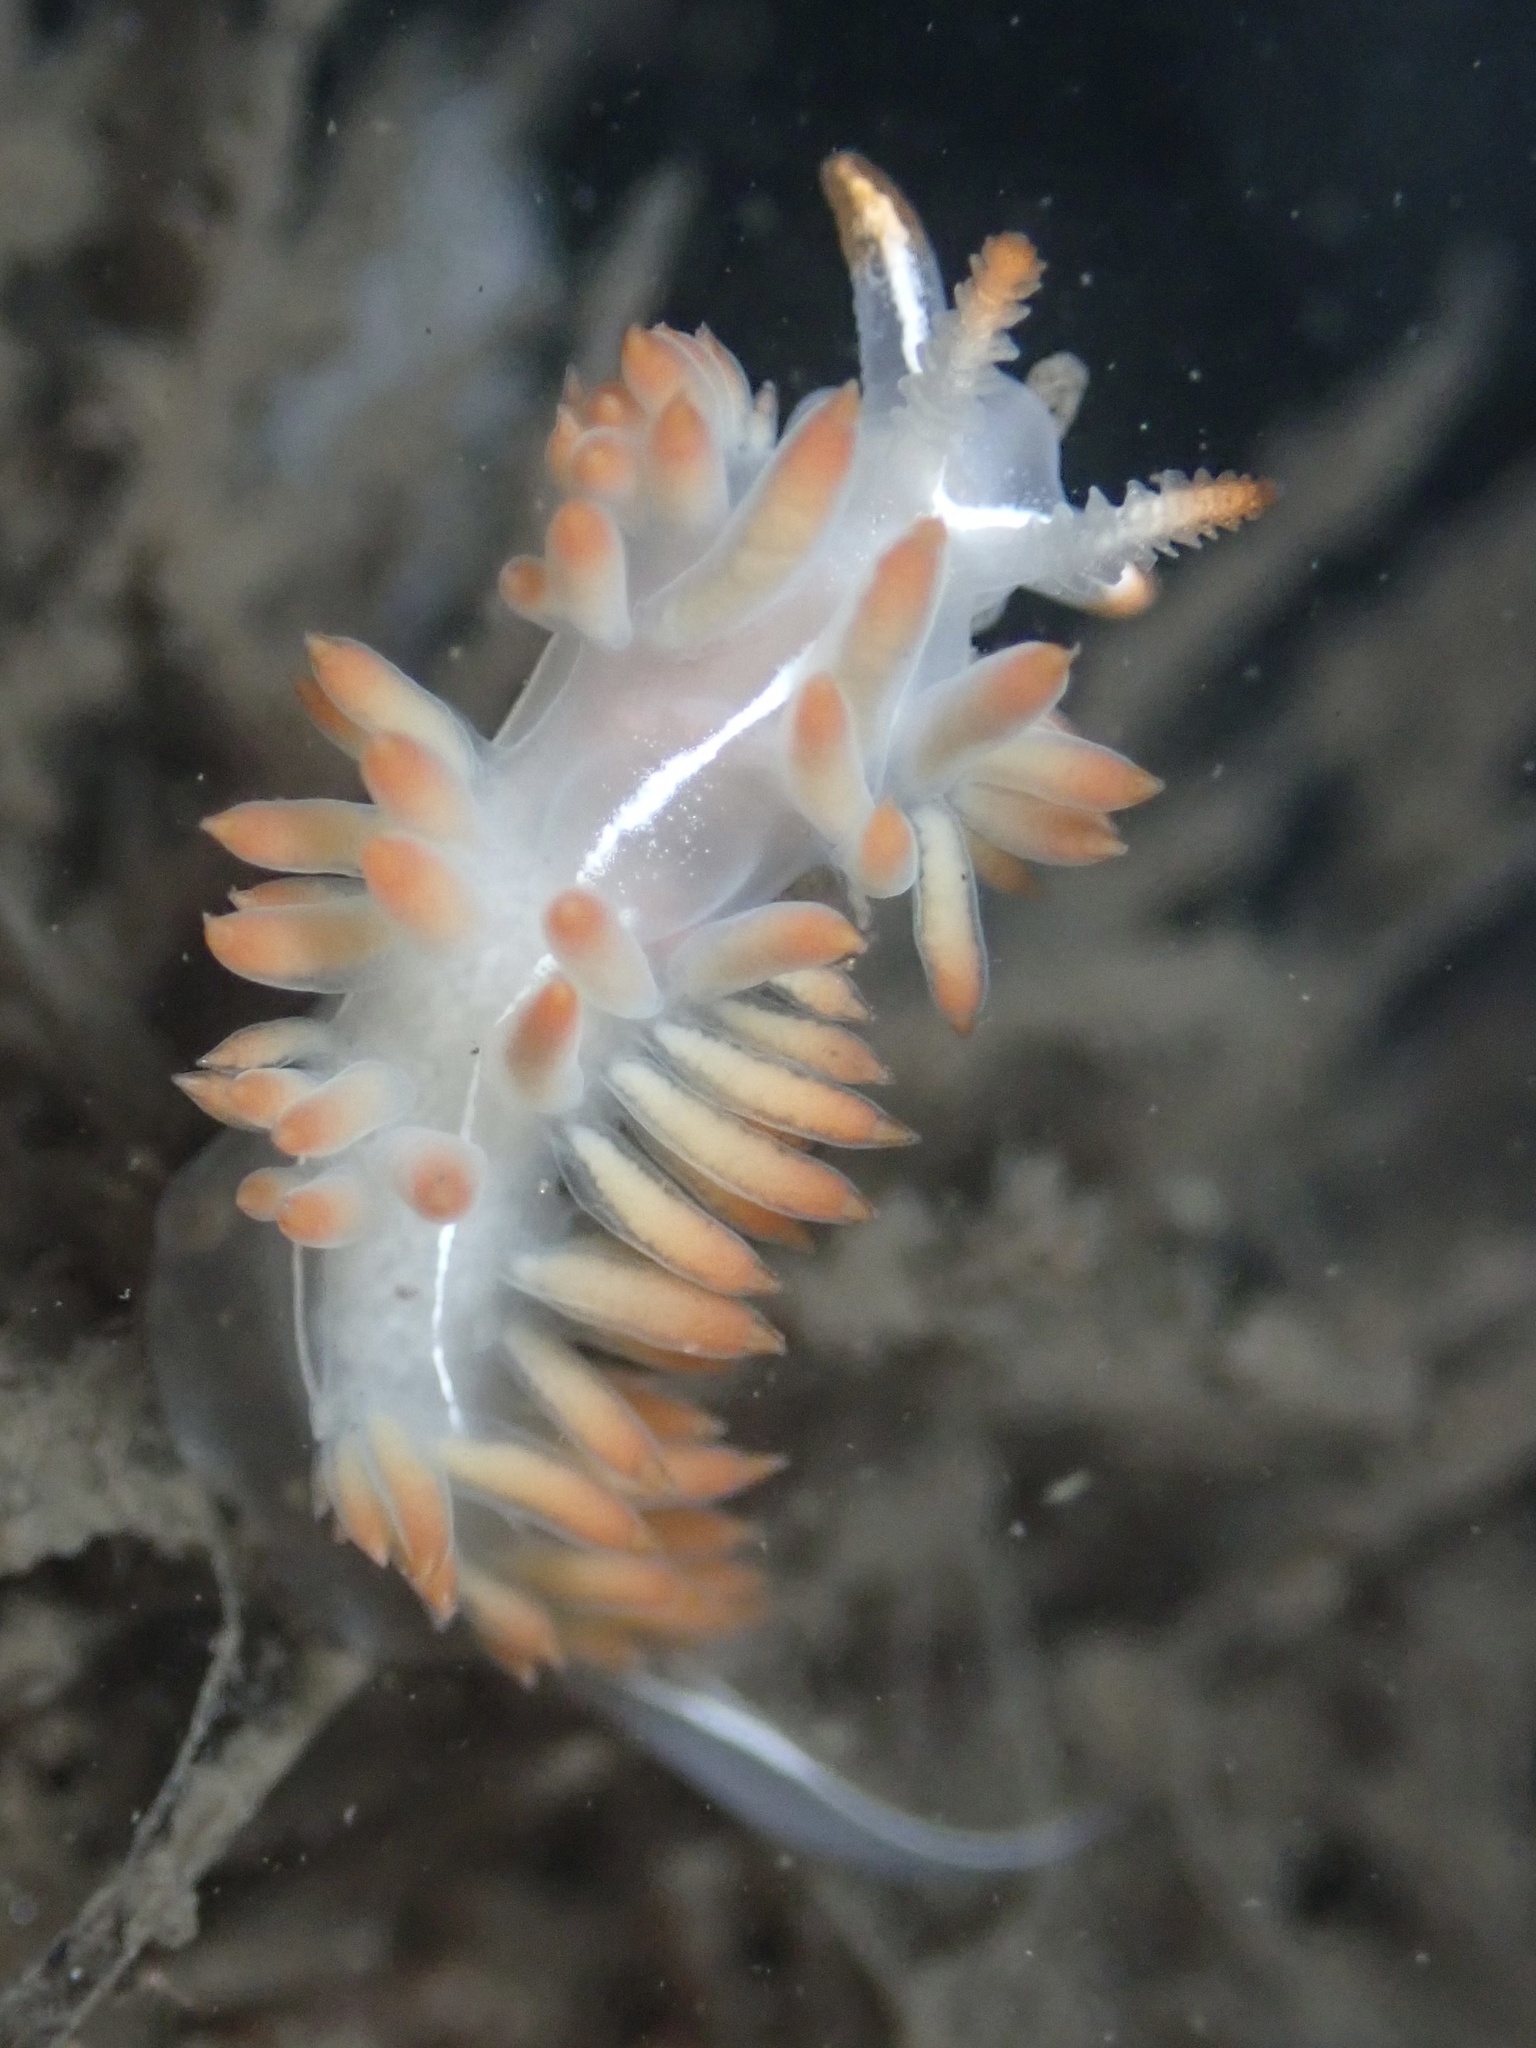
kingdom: Animalia
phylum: Mollusca
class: Gastropoda
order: Nudibranchia
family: Coryphellidae
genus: Coryphella
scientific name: Coryphella trilineata
